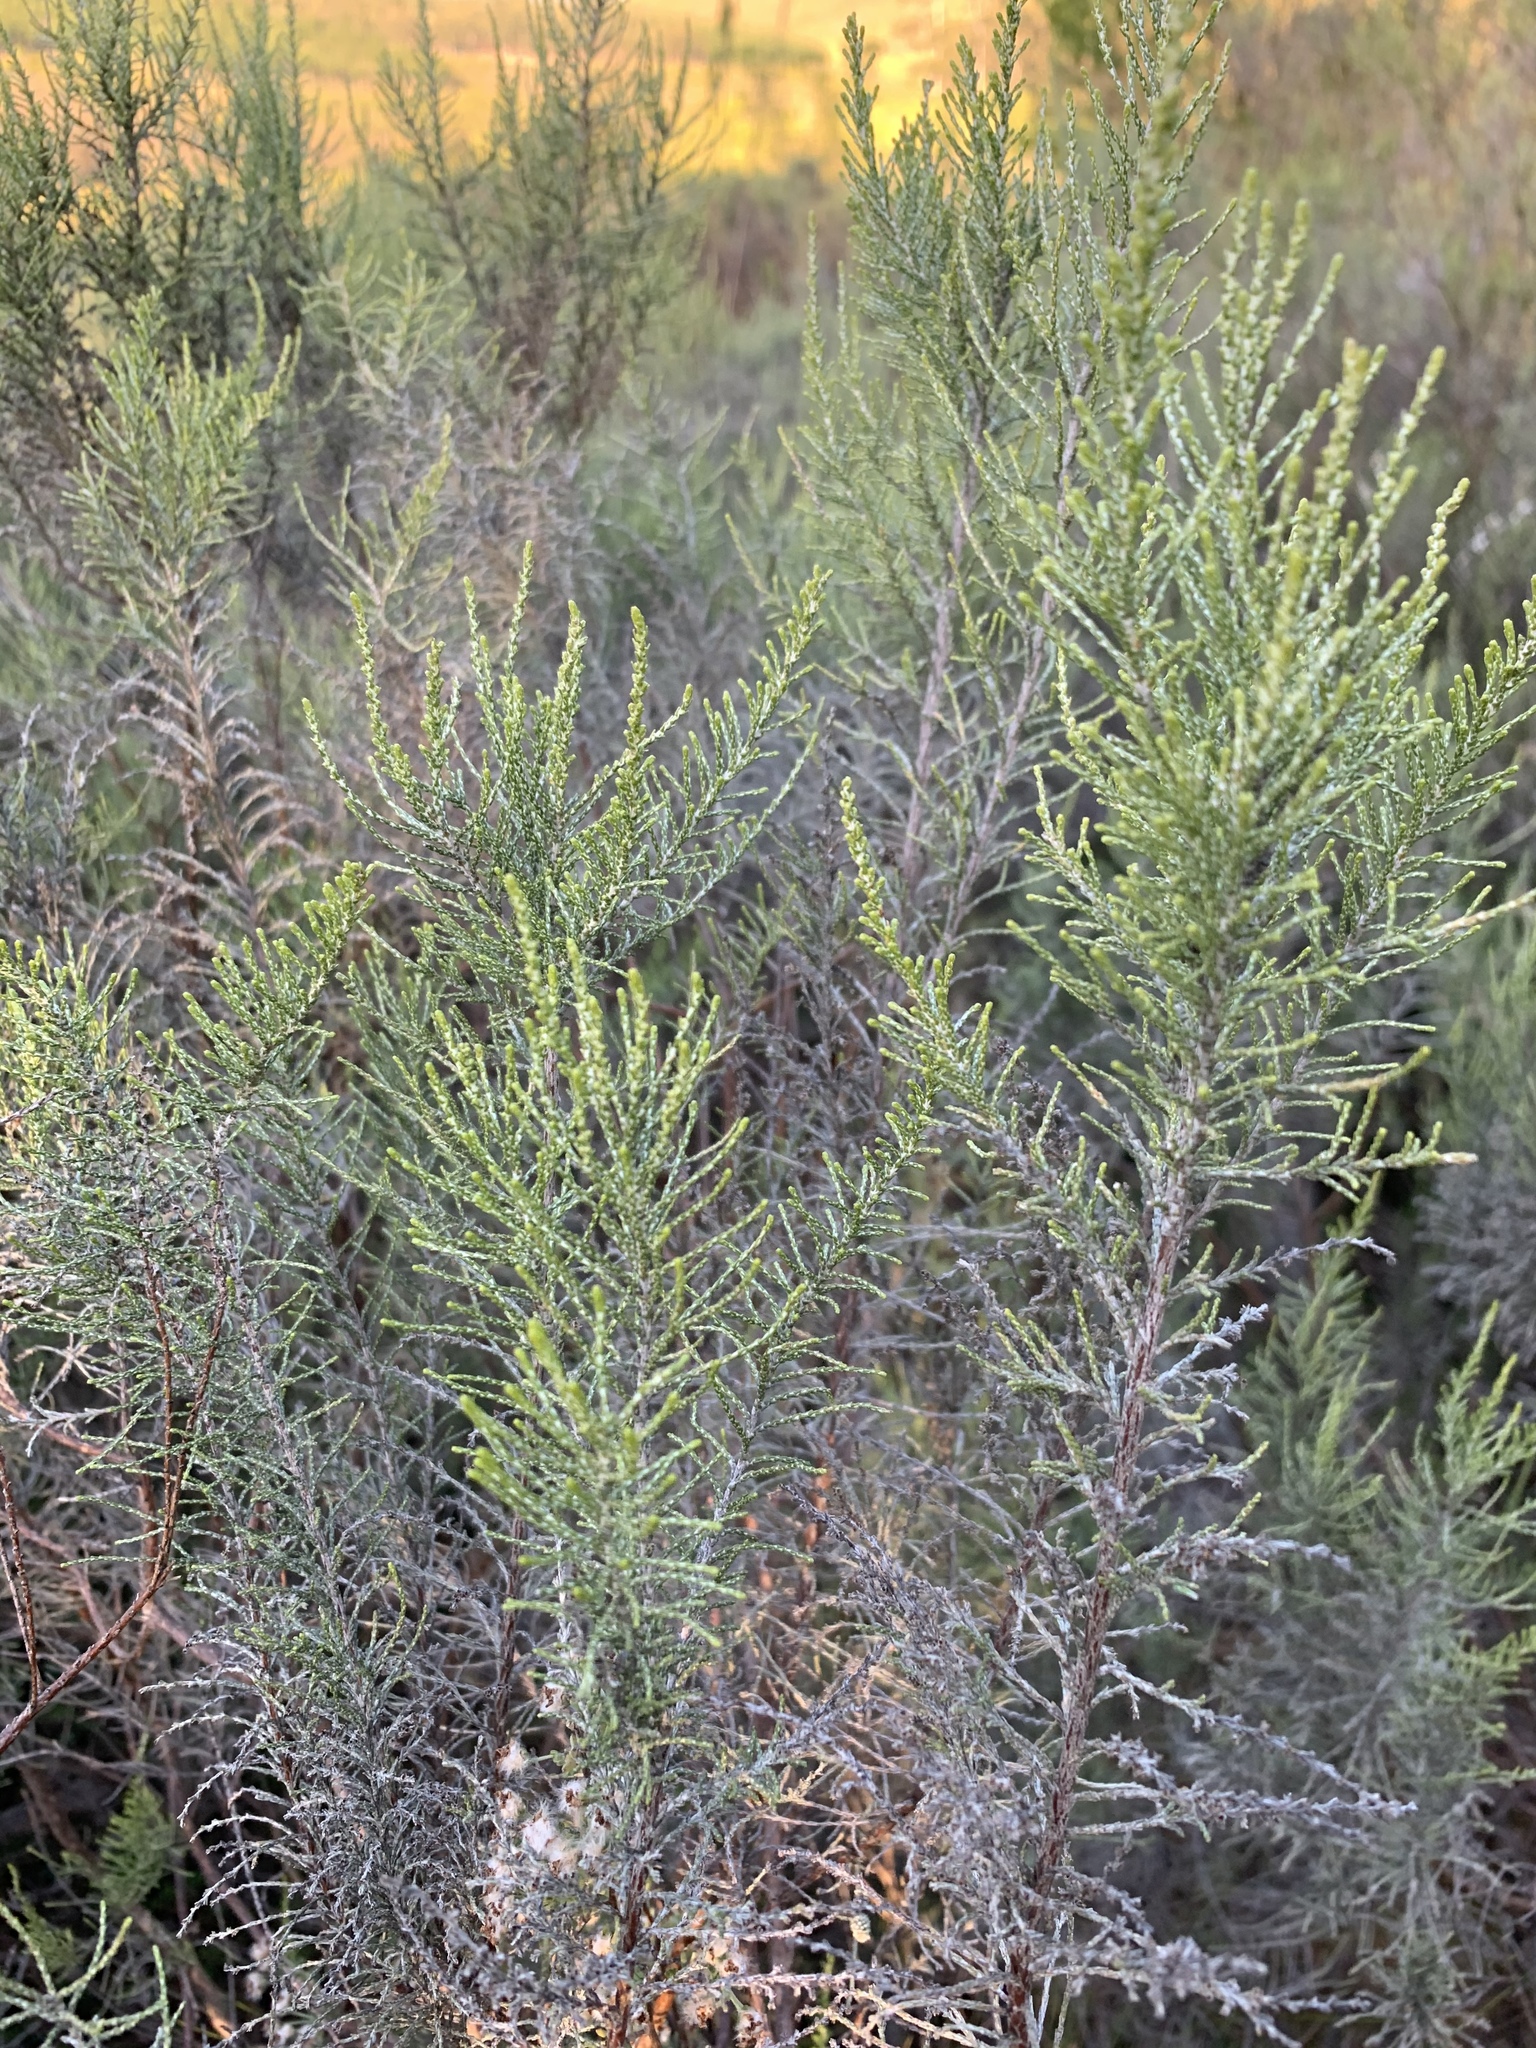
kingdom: Plantae
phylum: Tracheophyta
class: Magnoliopsida
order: Asterales
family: Asteraceae
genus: Dicerothamnus
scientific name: Dicerothamnus rhinocerotis
